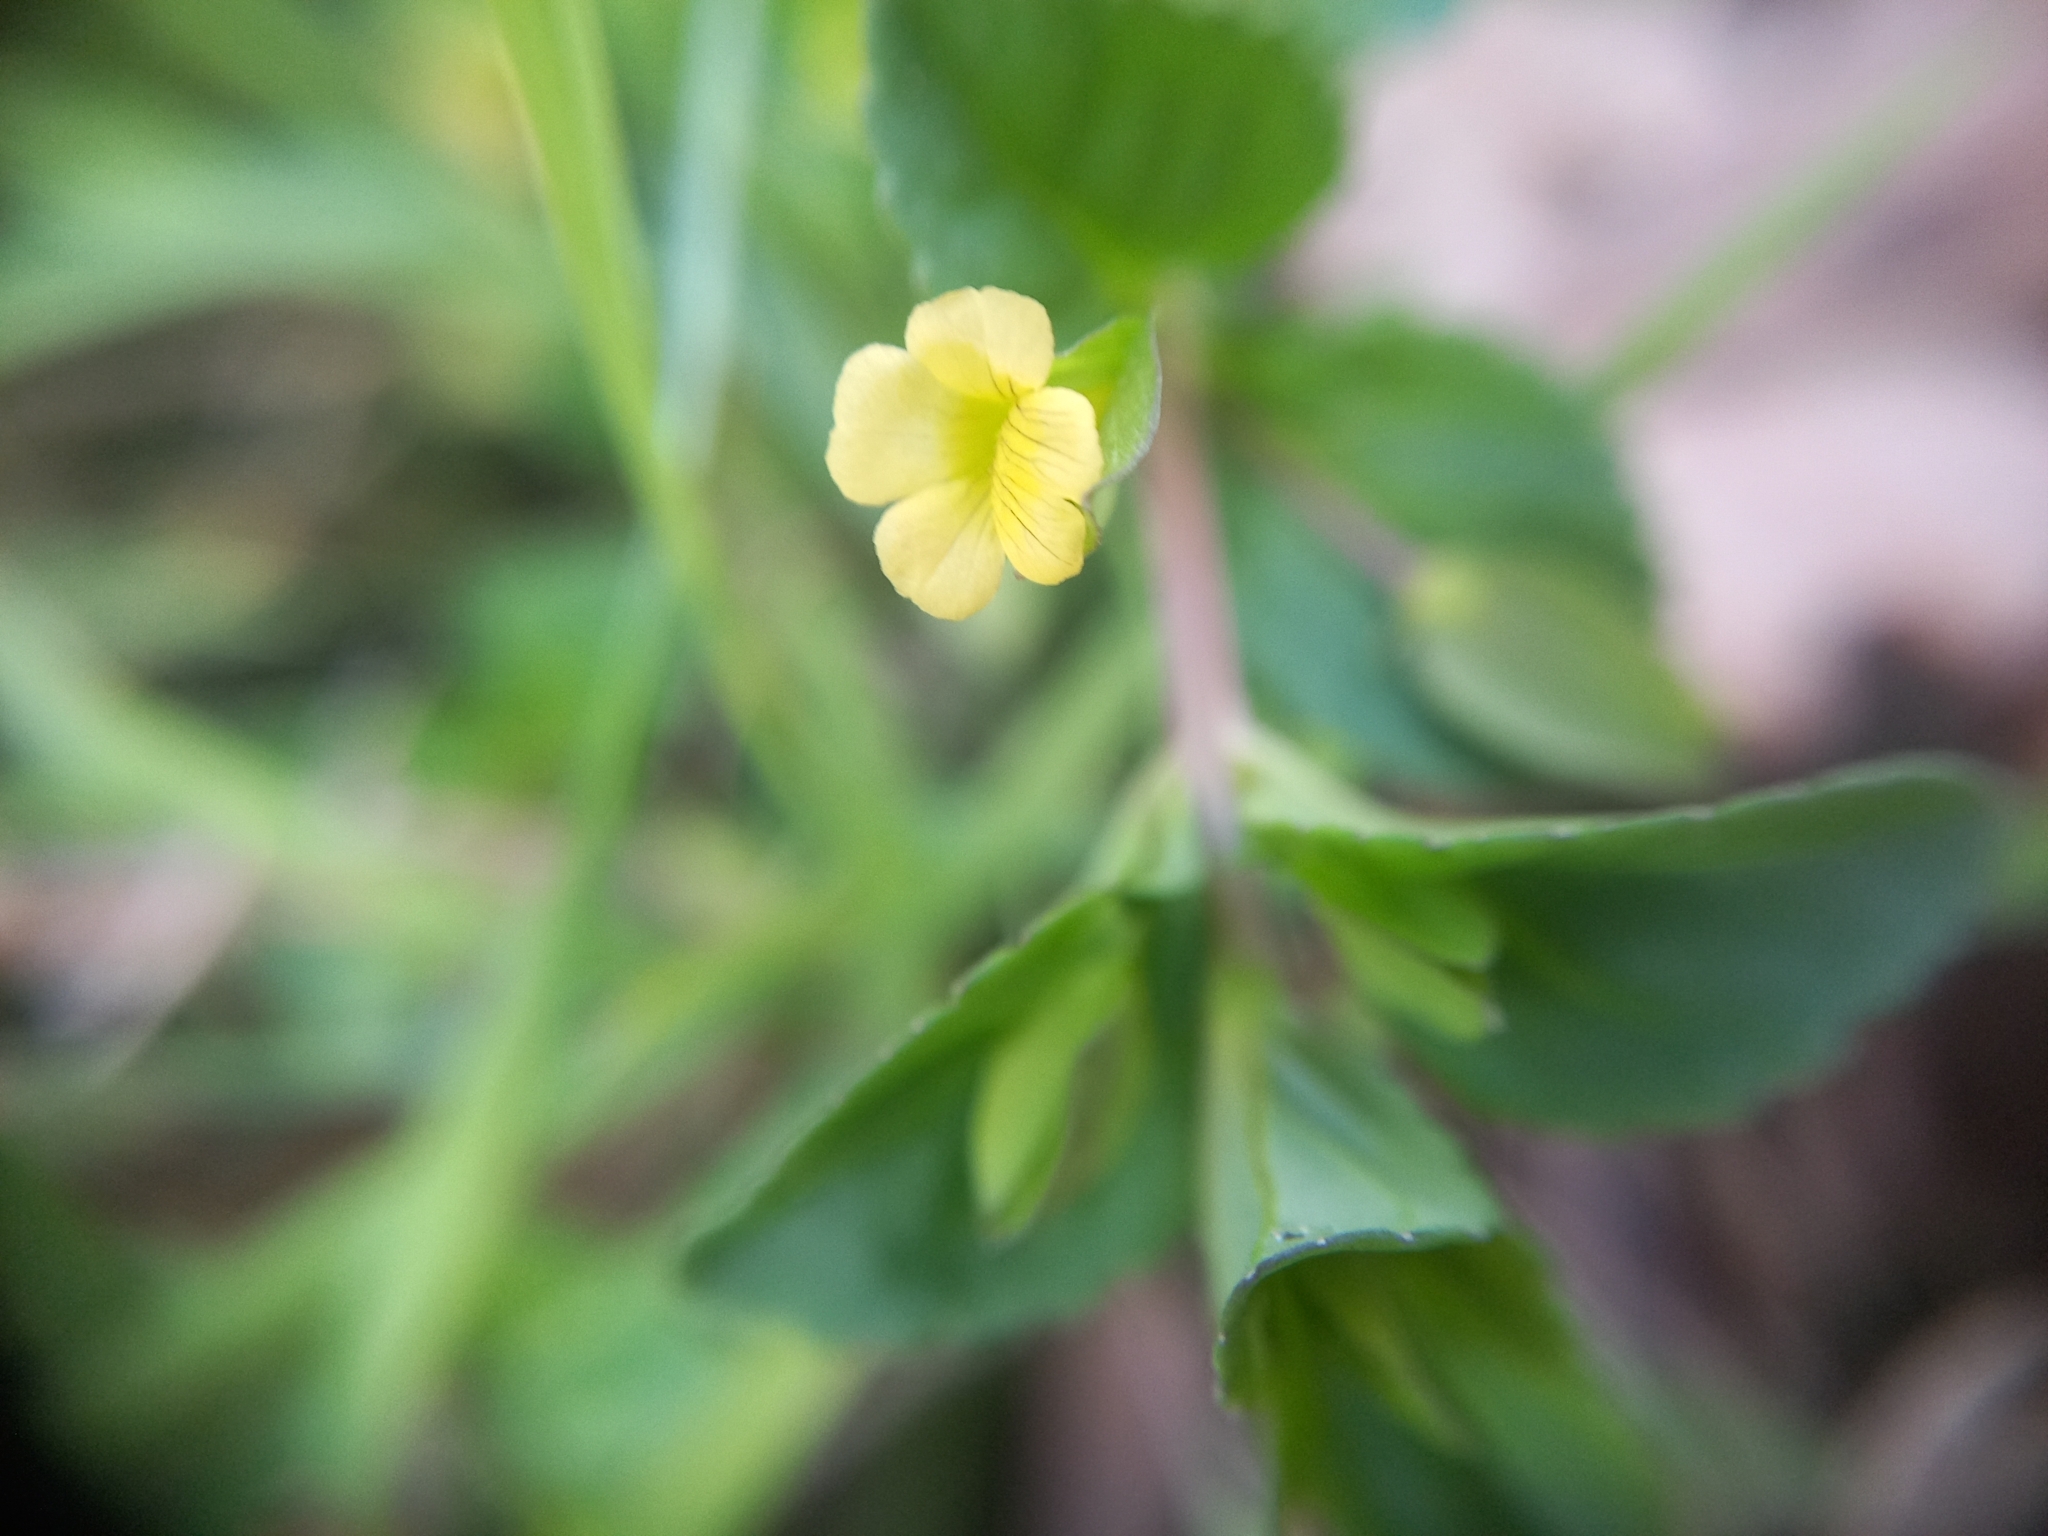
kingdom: Plantae
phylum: Tracheophyta
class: Magnoliopsida
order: Lamiales
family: Plantaginaceae
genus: Mecardonia
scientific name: Mecardonia procumbens
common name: Baby jump-up
